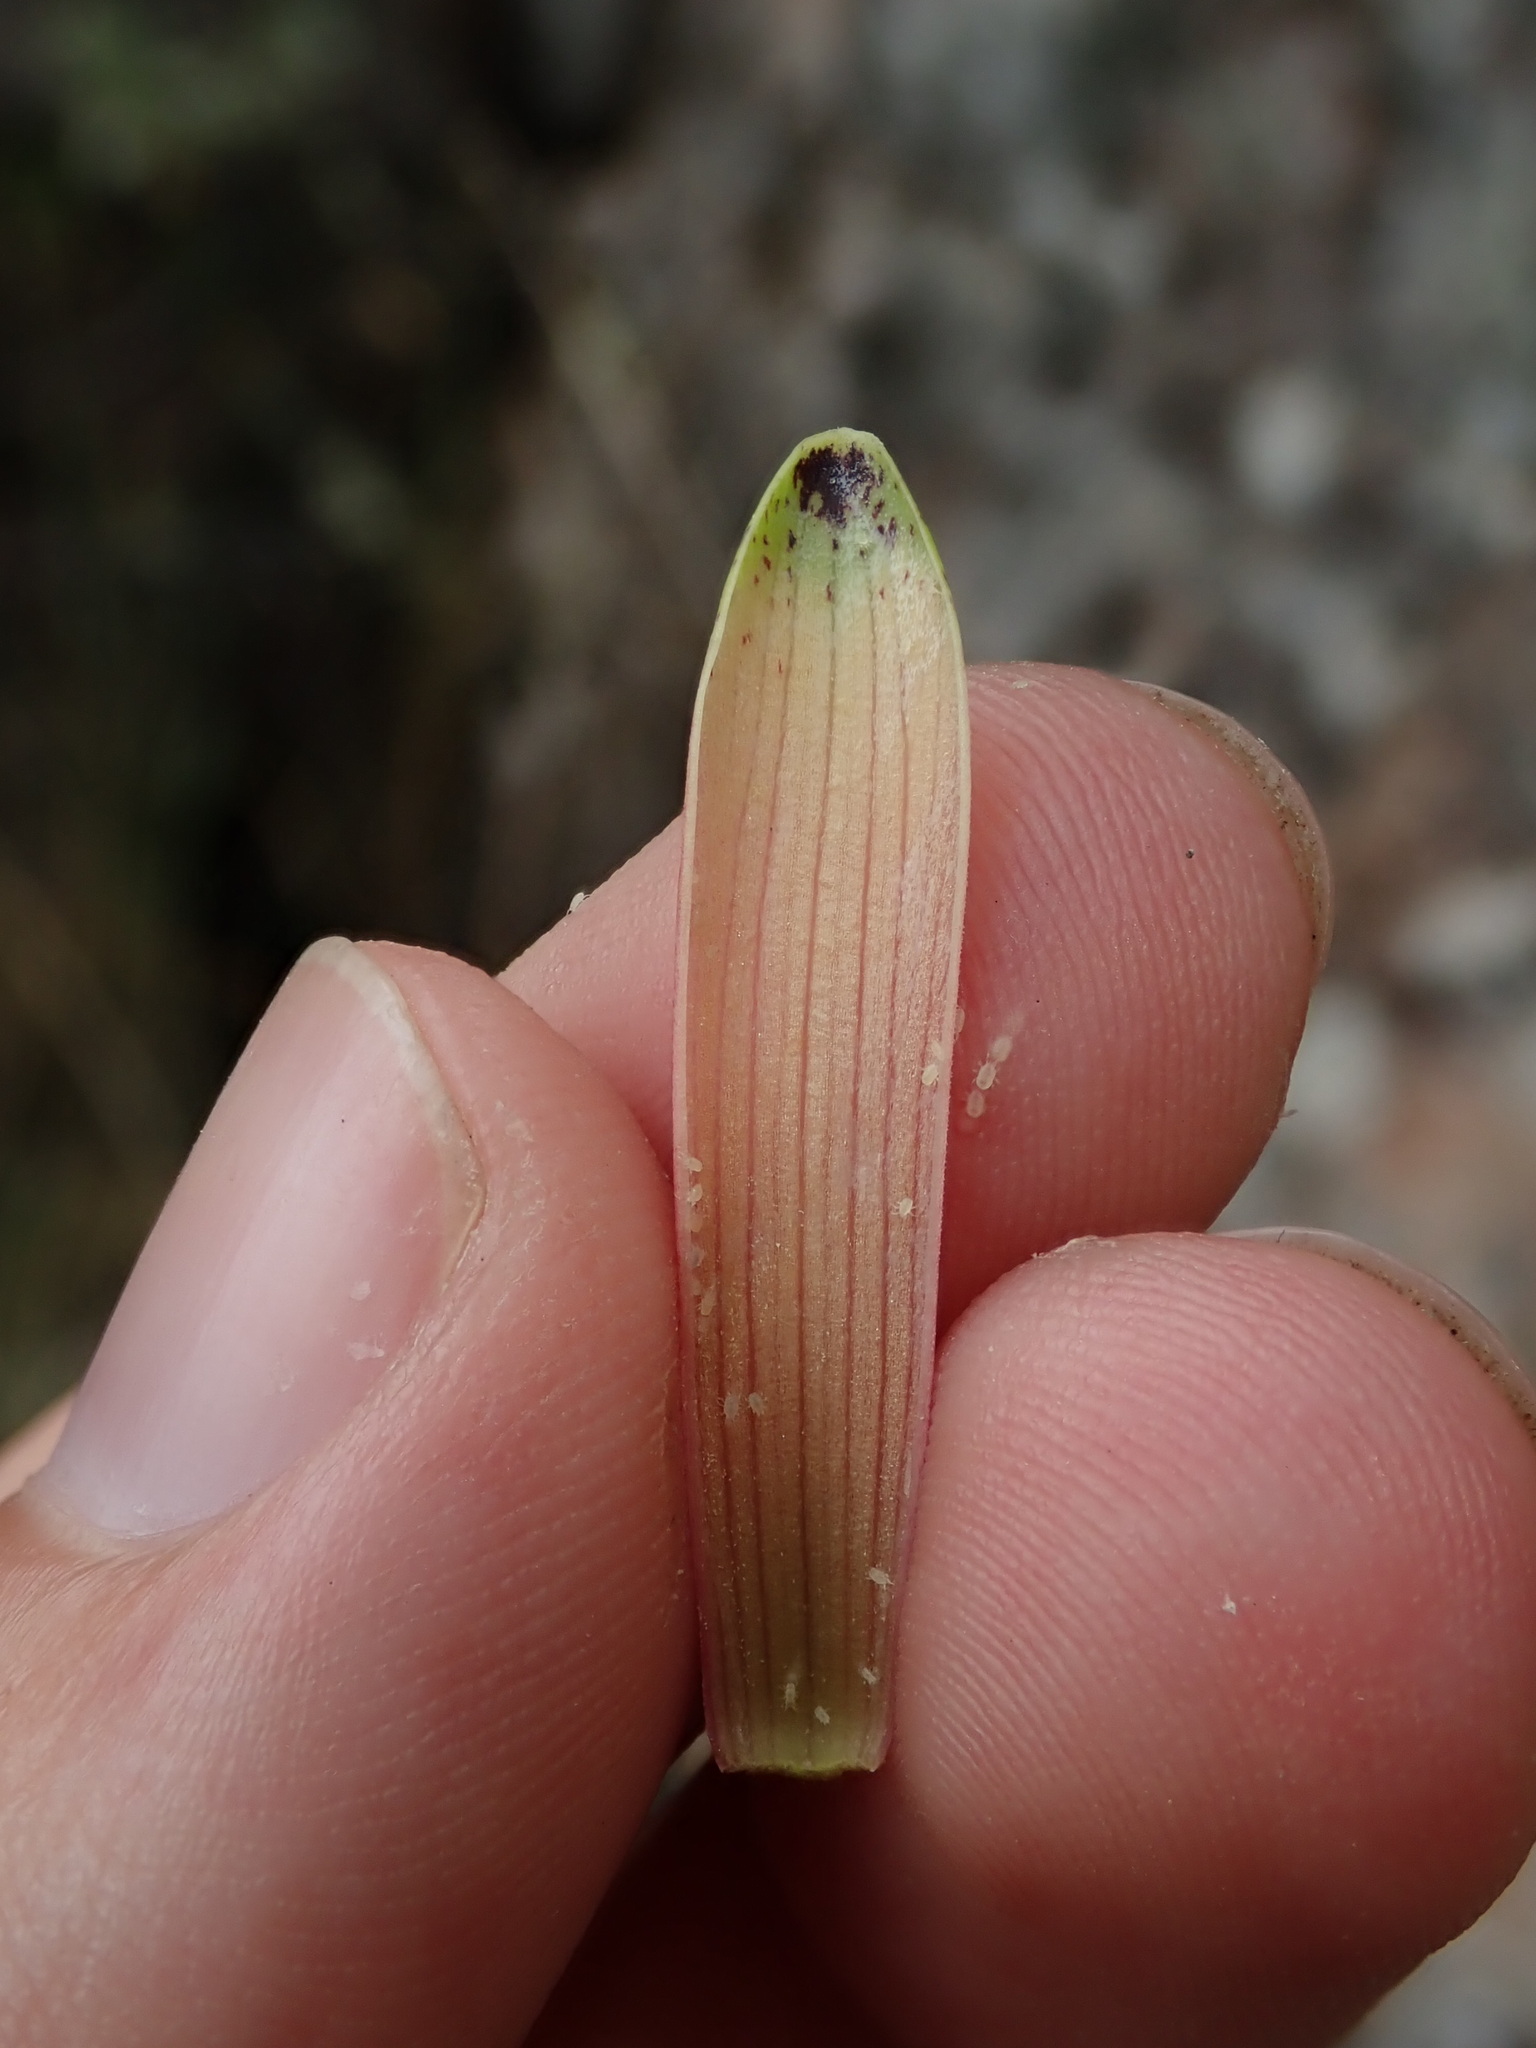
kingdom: Plantae
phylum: Tracheophyta
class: Liliopsida
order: Liliales
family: Alstroemeriaceae
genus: Bomarea
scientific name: Bomarea andimarcana
